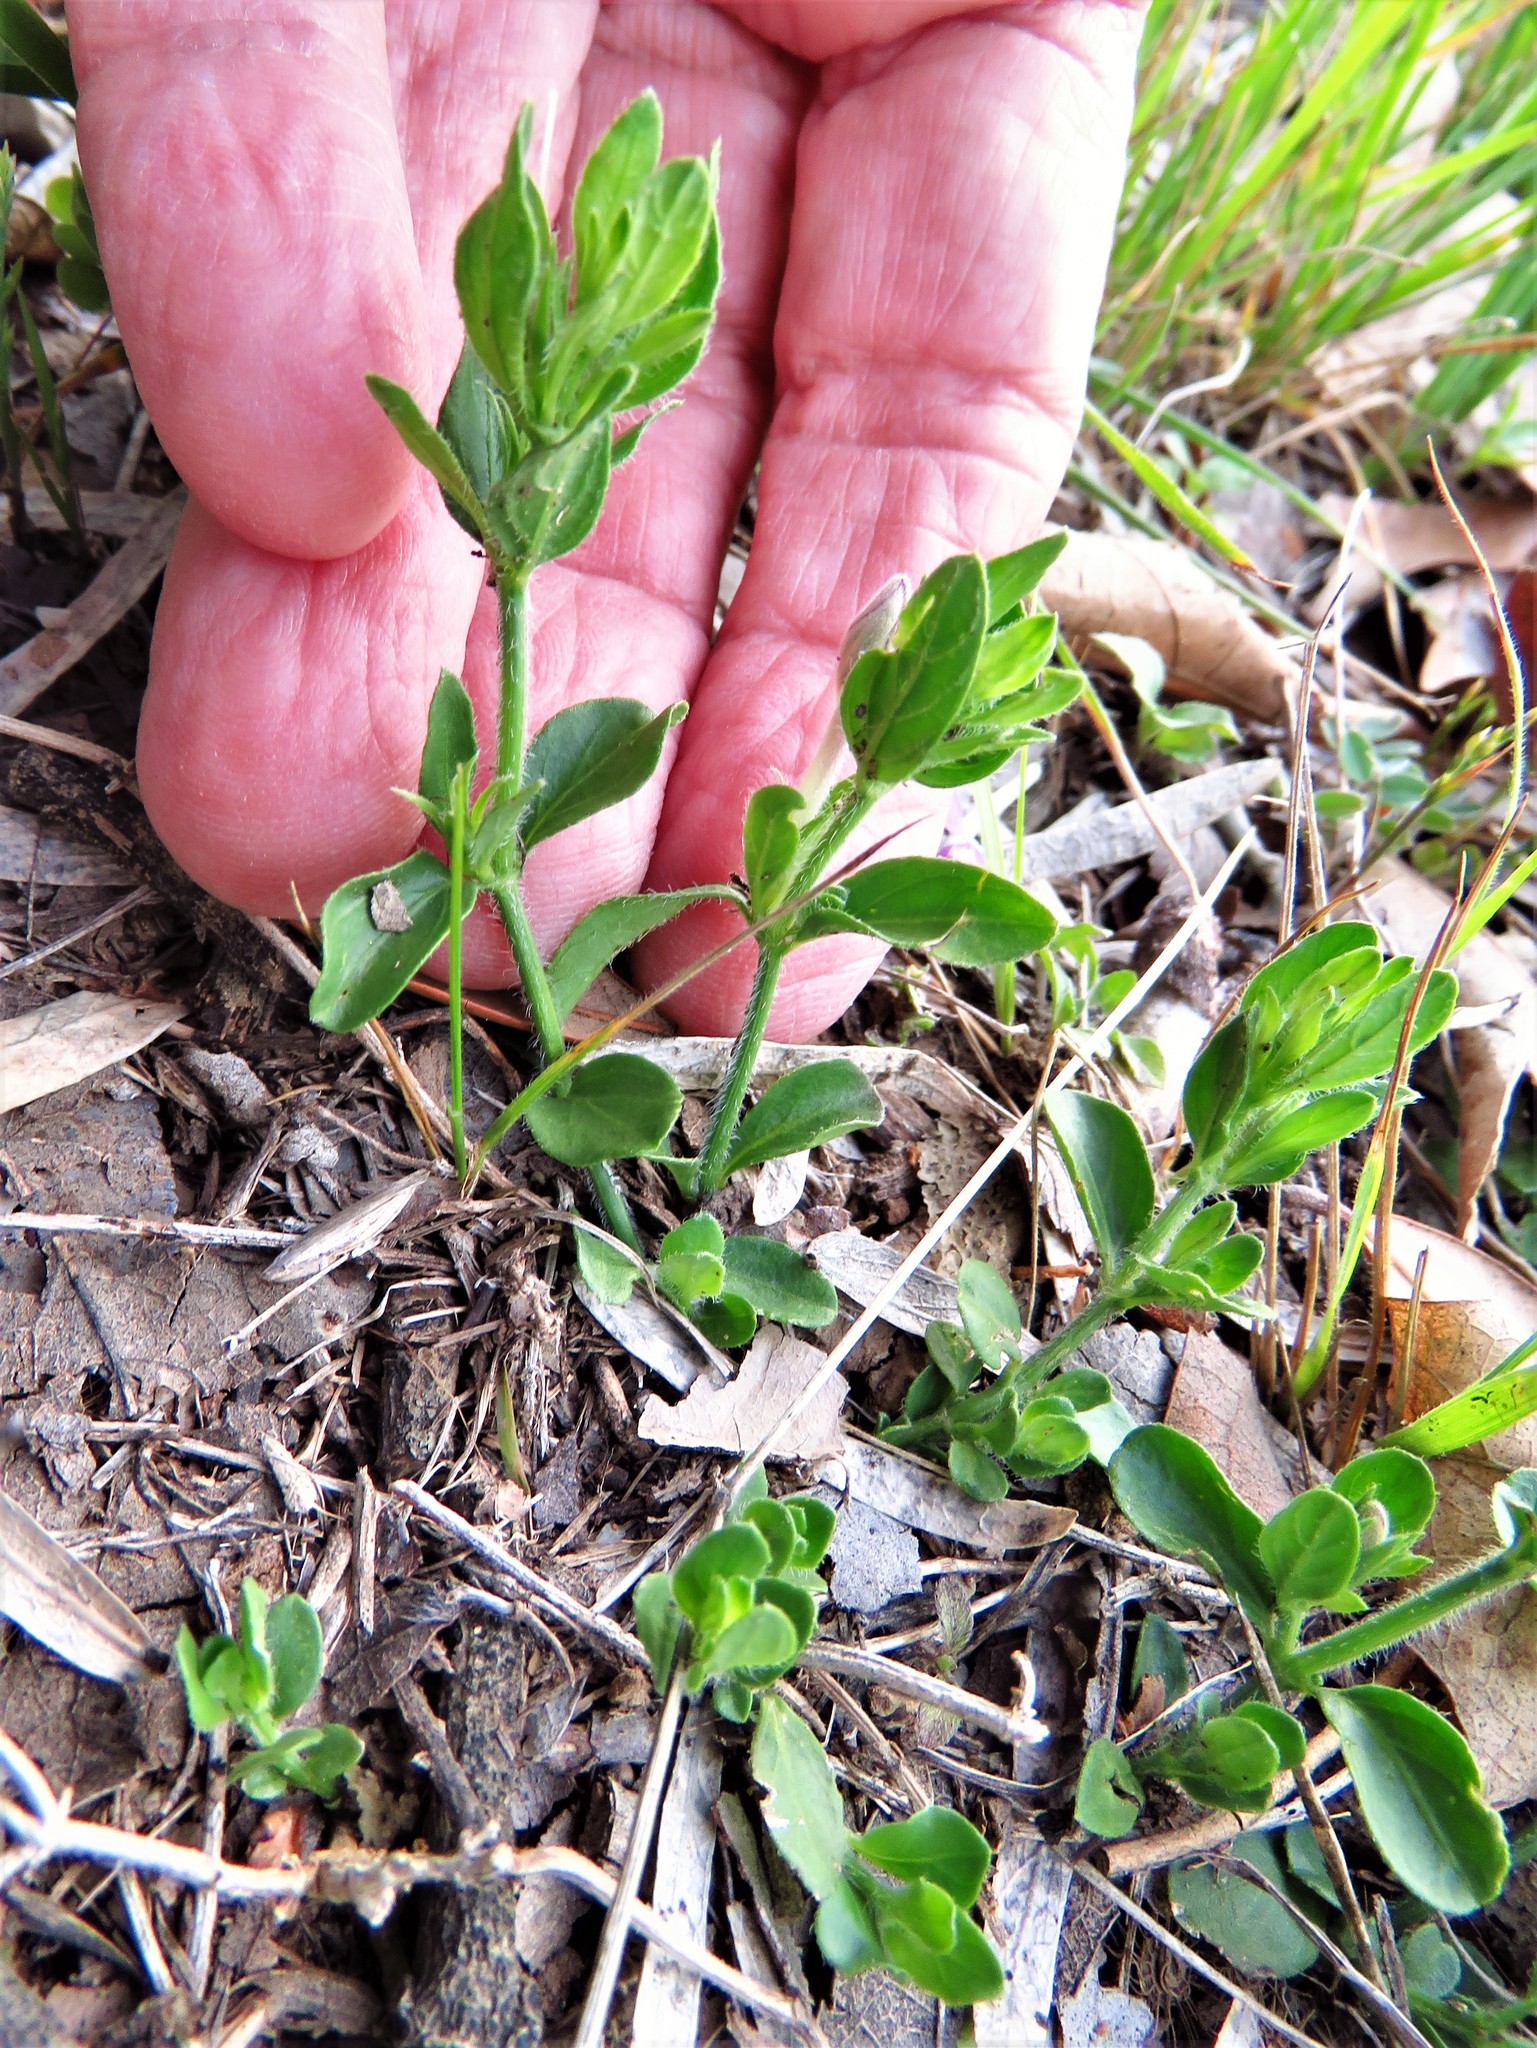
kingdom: Plantae
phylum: Tracheophyta
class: Magnoliopsida
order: Lamiales
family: Acanthaceae
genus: Justicia
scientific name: Justicia pilosella
